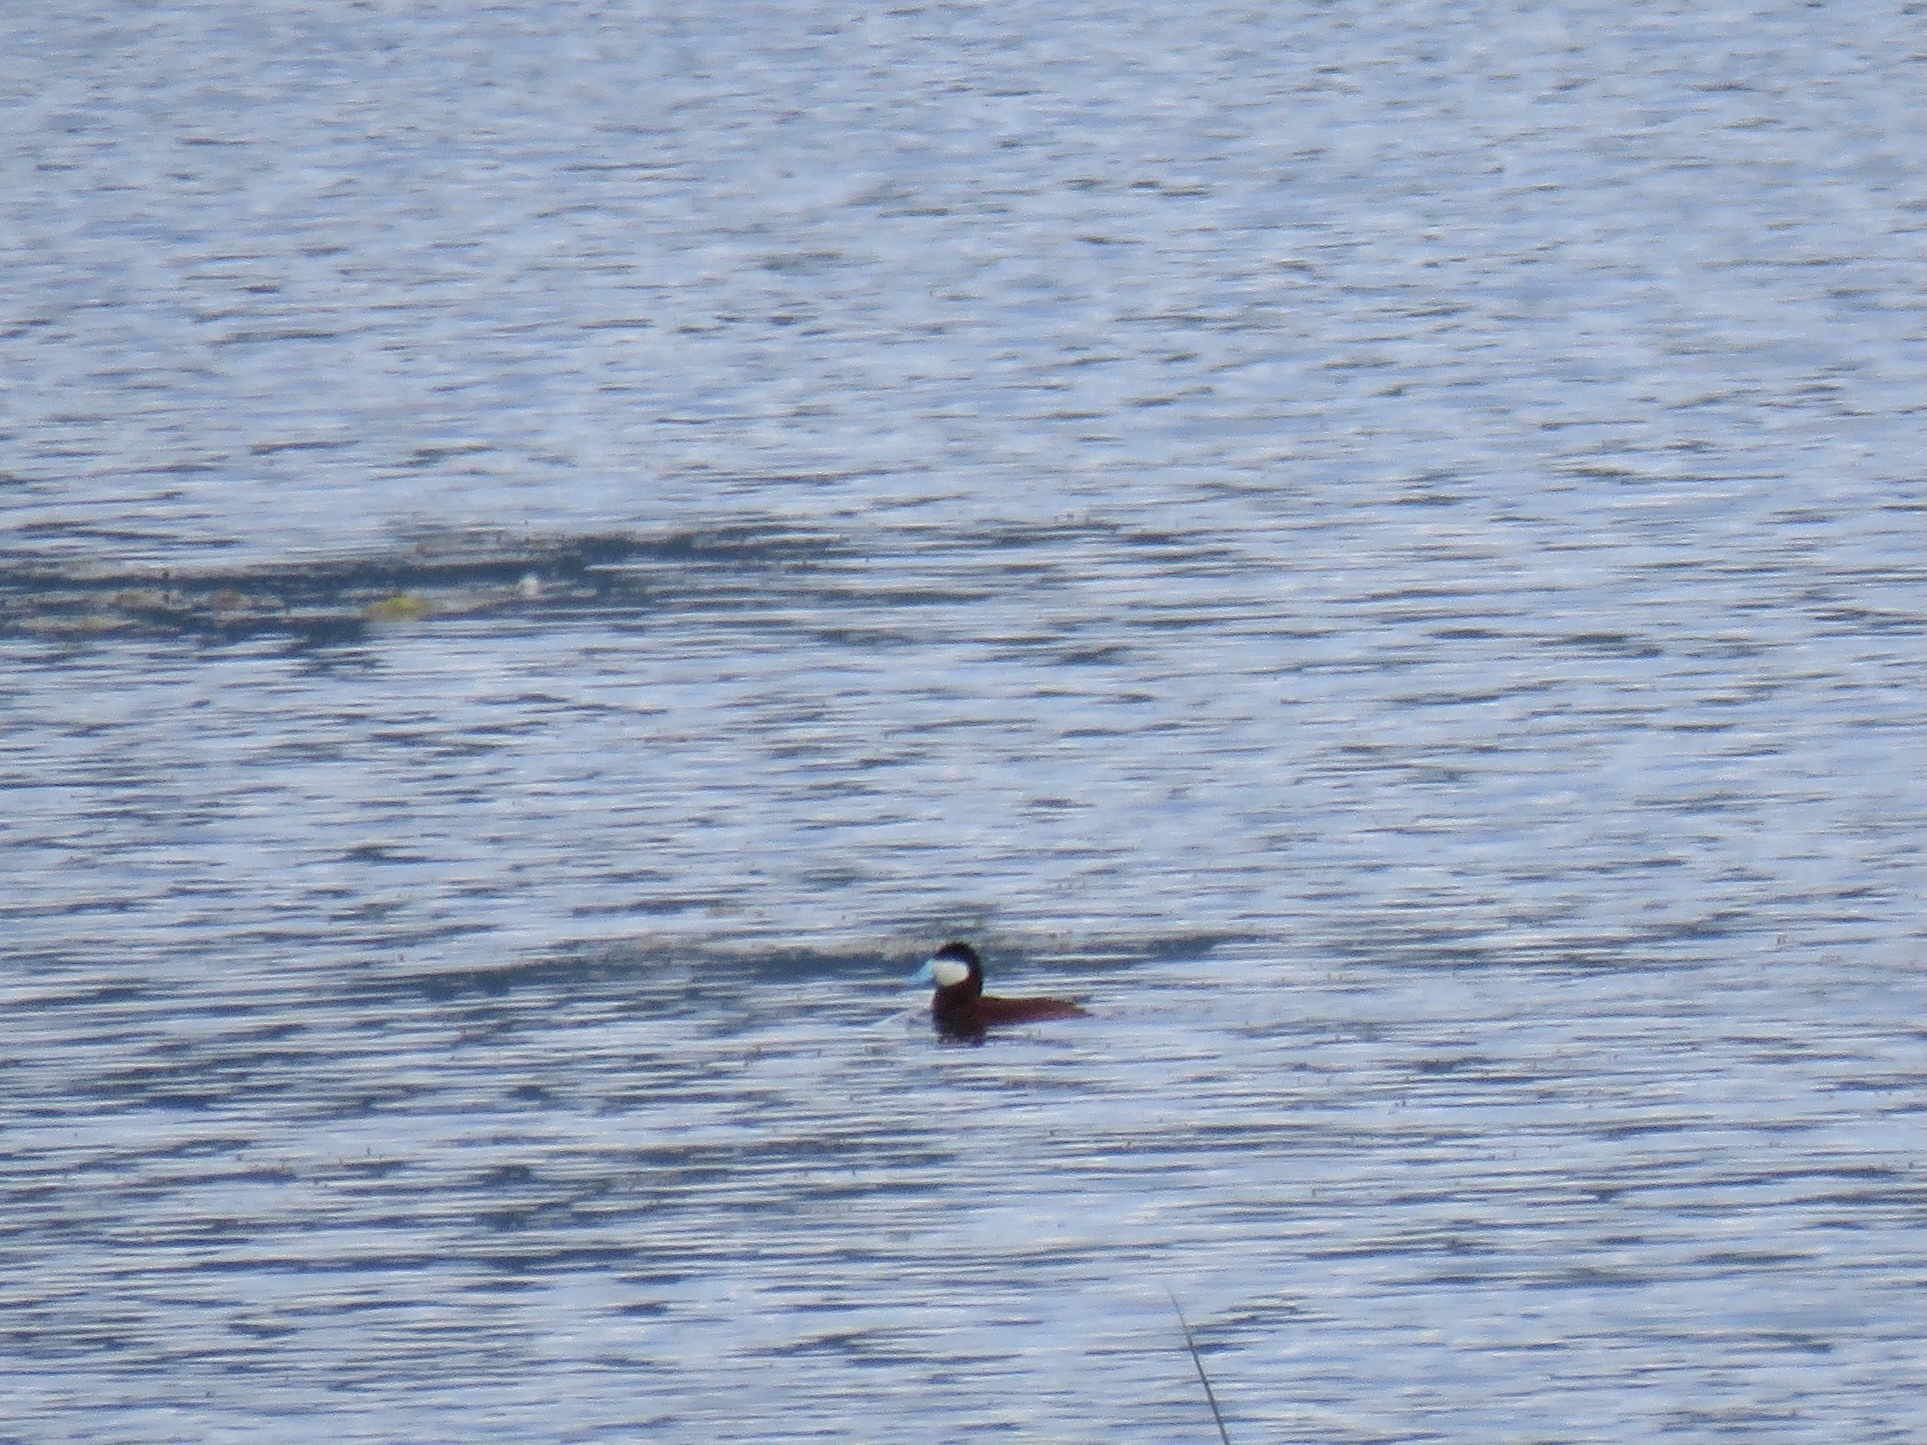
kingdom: Animalia
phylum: Chordata
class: Aves
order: Anseriformes
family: Anatidae
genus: Oxyura
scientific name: Oxyura jamaicensis
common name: Ruddy duck
